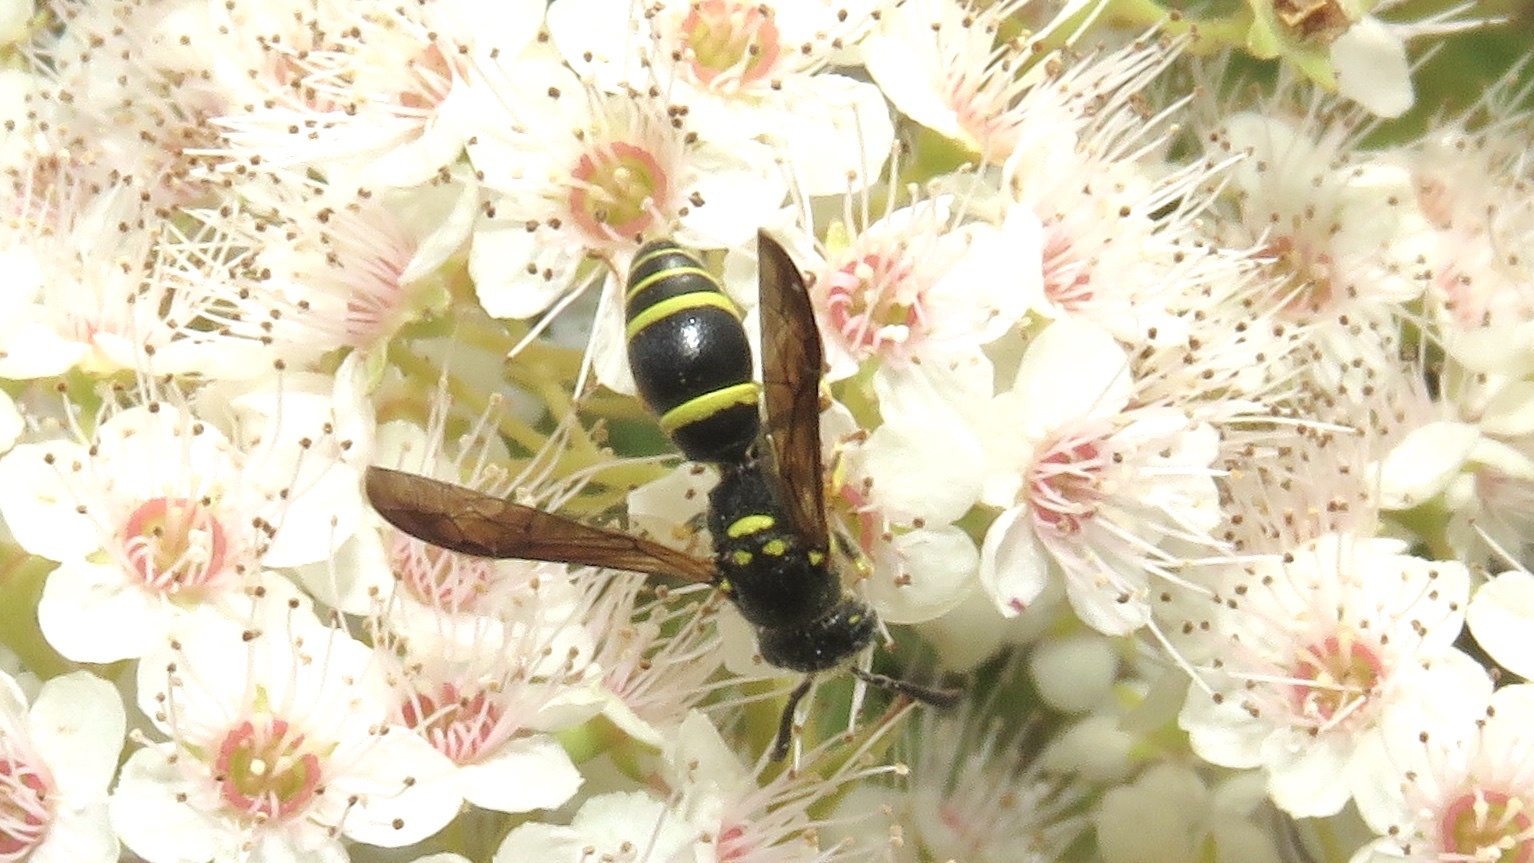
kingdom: Animalia
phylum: Arthropoda
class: Insecta
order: Hymenoptera
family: Vespidae
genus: Ancistrocerus
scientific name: Ancistrocerus adiabatus
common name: Bramble mason wasp
